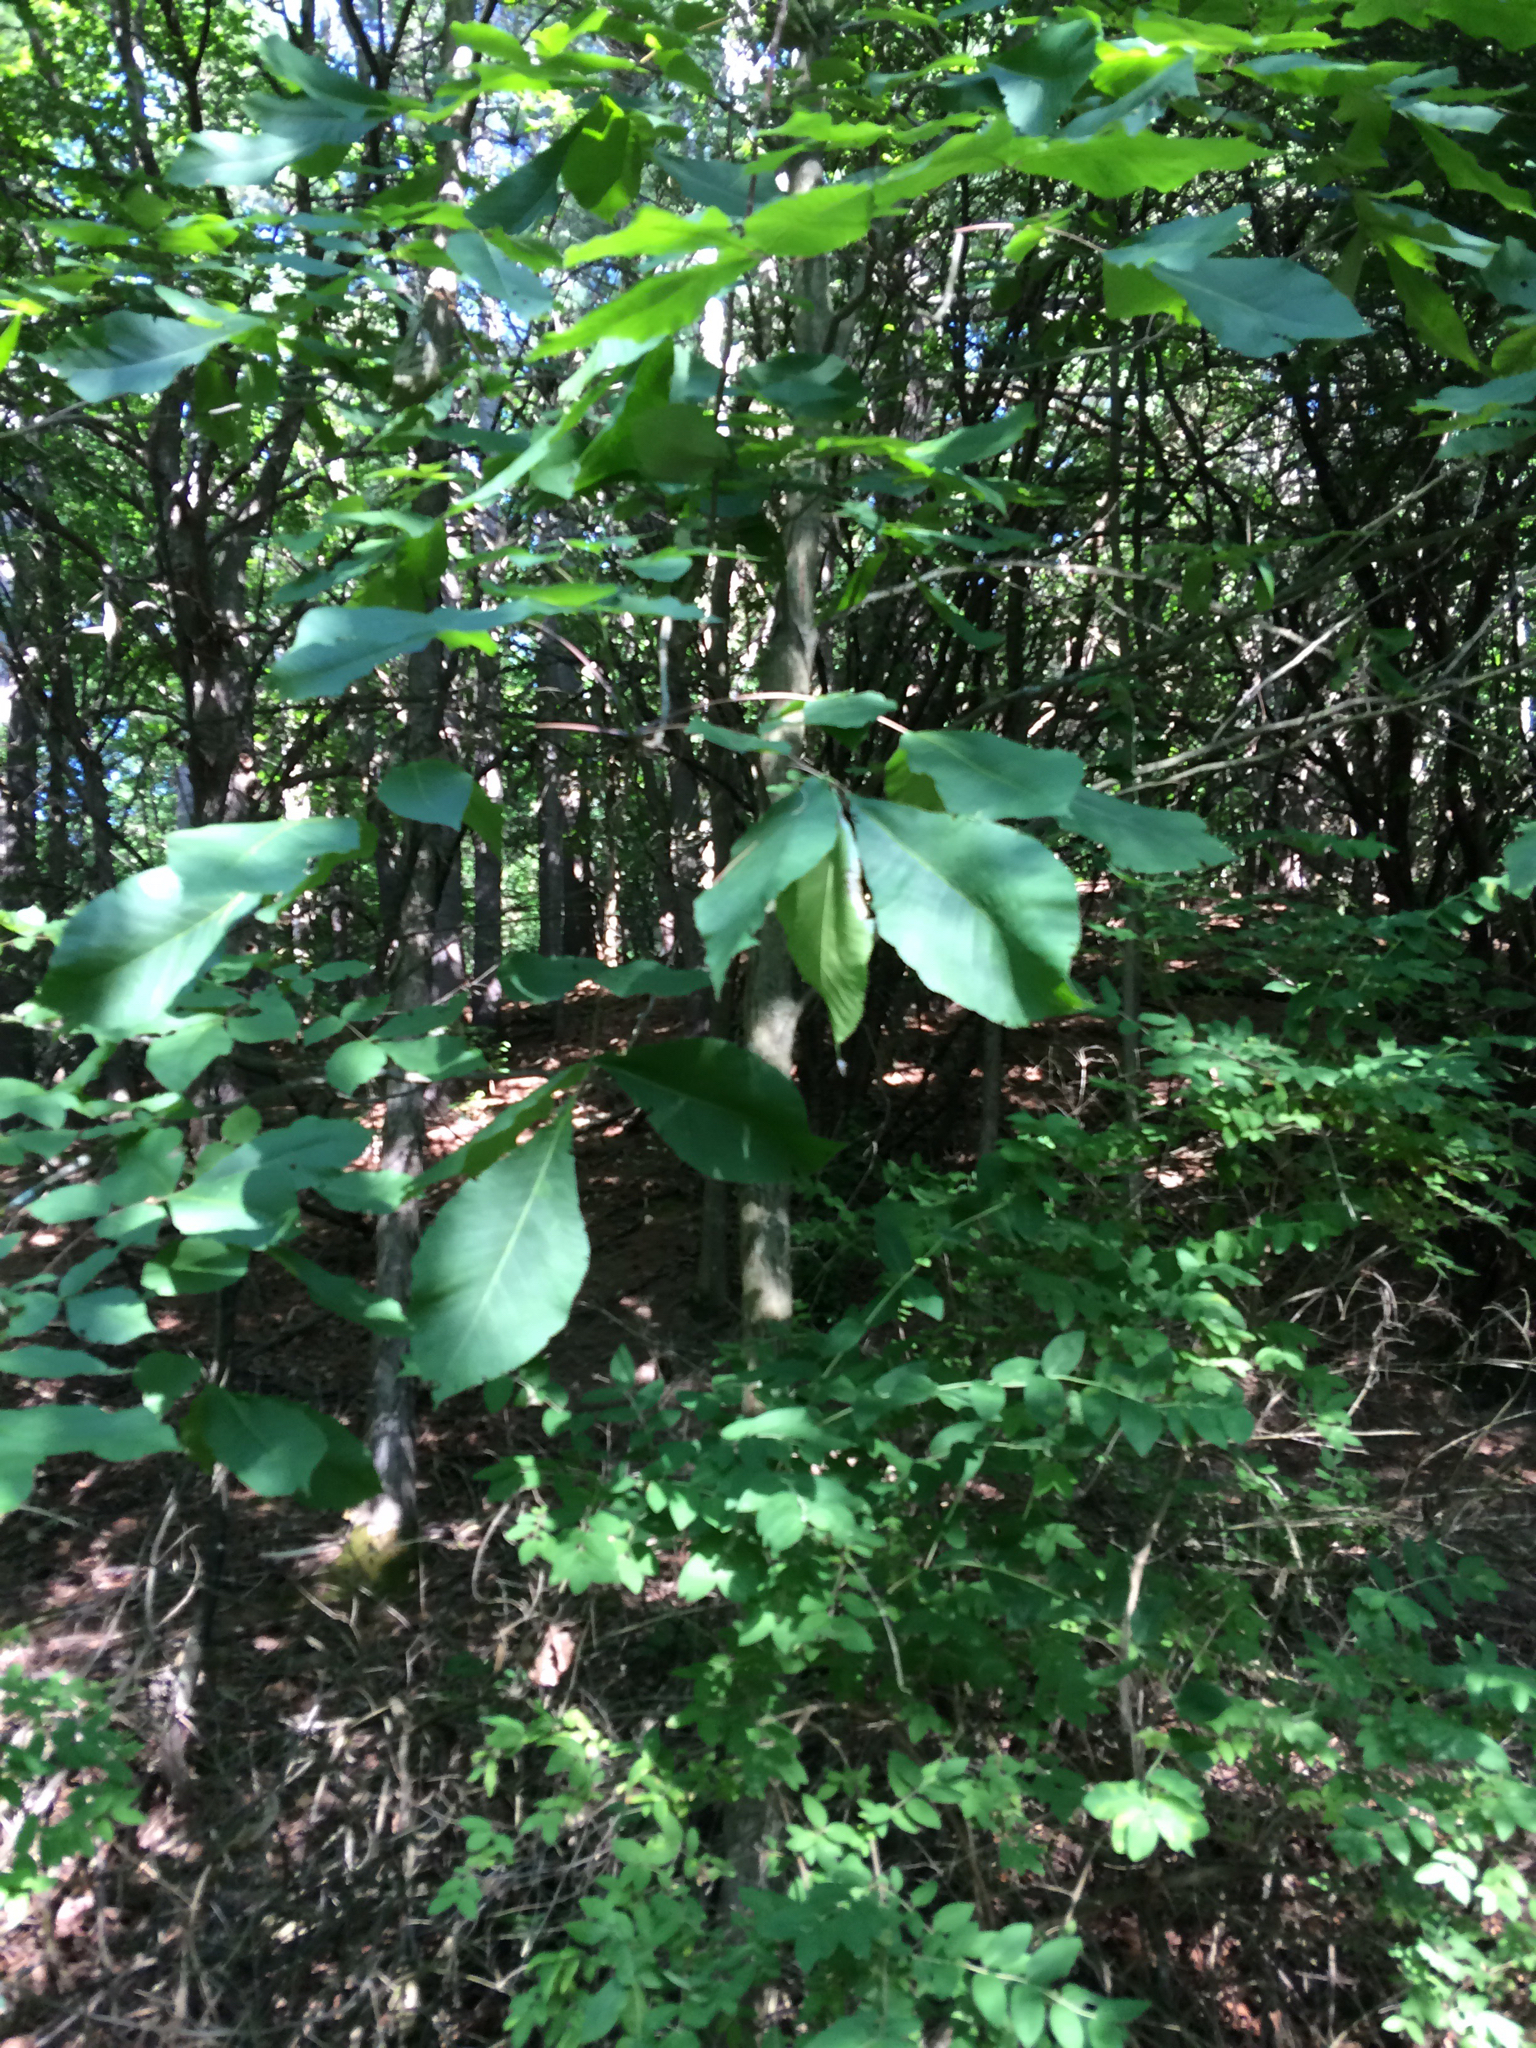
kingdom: Plantae
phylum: Tracheophyta
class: Magnoliopsida
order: Fagales
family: Juglandaceae
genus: Carya
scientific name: Carya ovata
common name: Shagbark hickory
